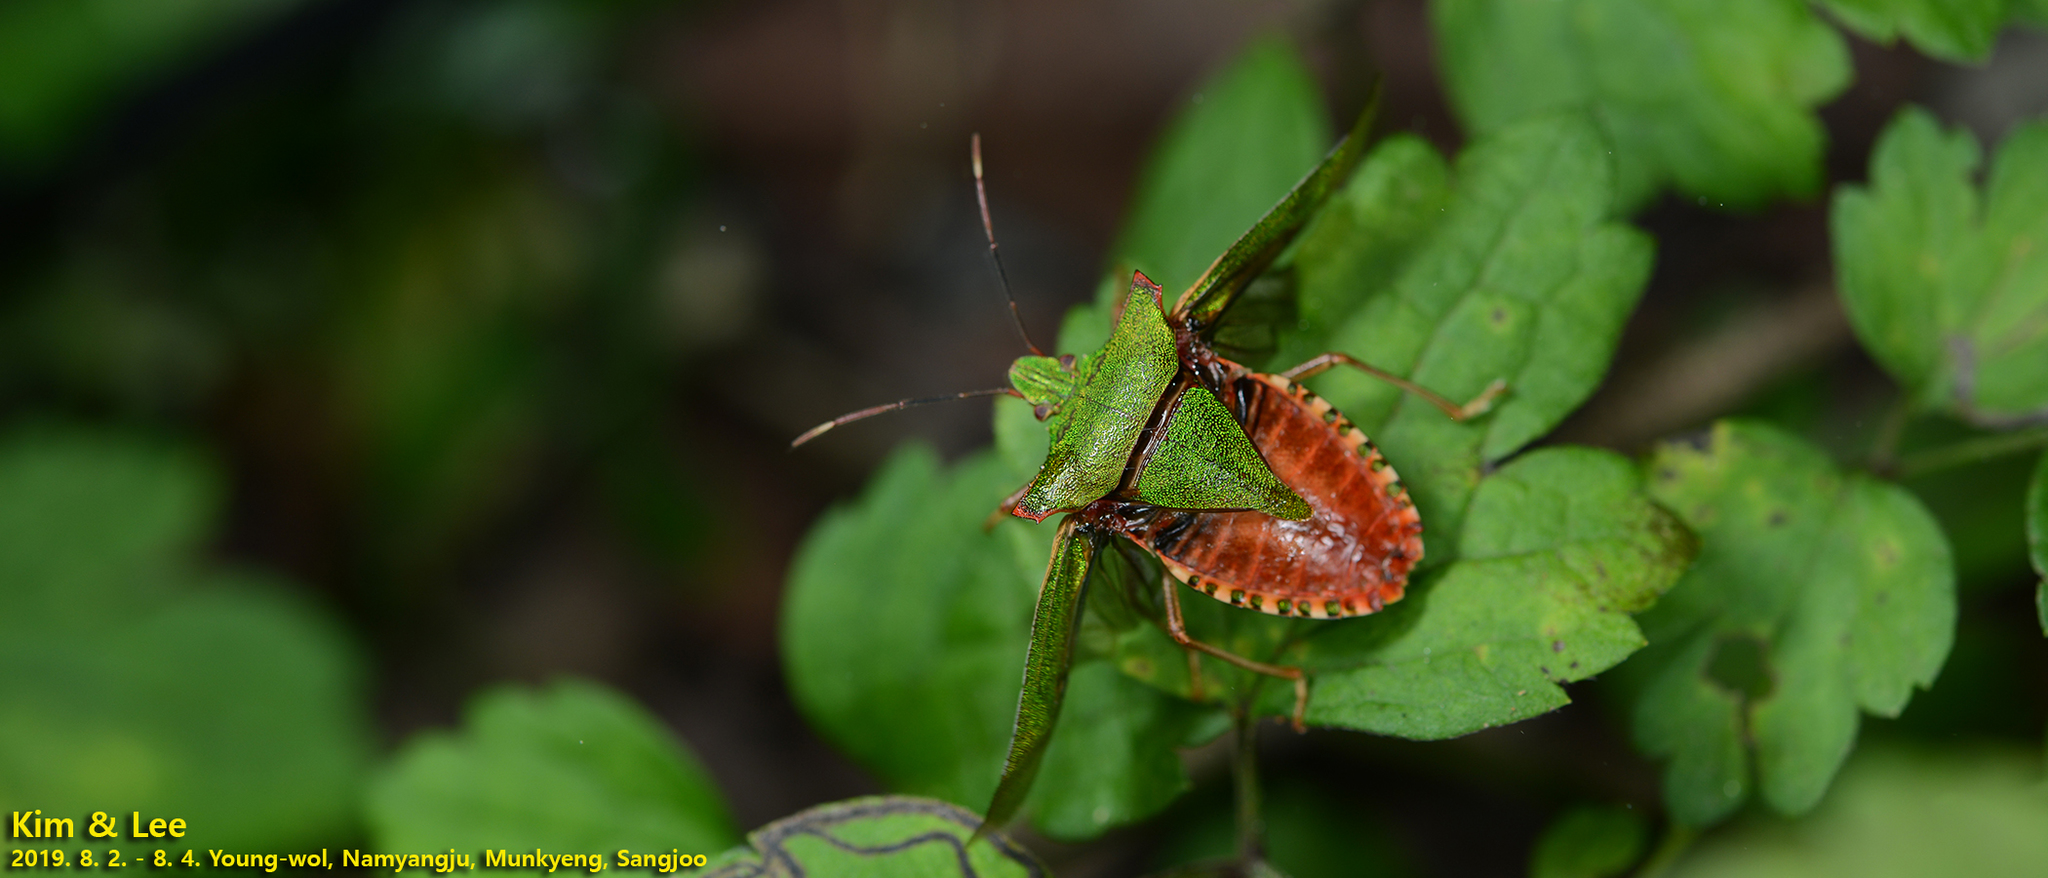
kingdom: Animalia
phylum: Arthropoda
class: Insecta
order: Hemiptera
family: Pentatomidae
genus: Pentatoma
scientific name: Pentatoma japonica
